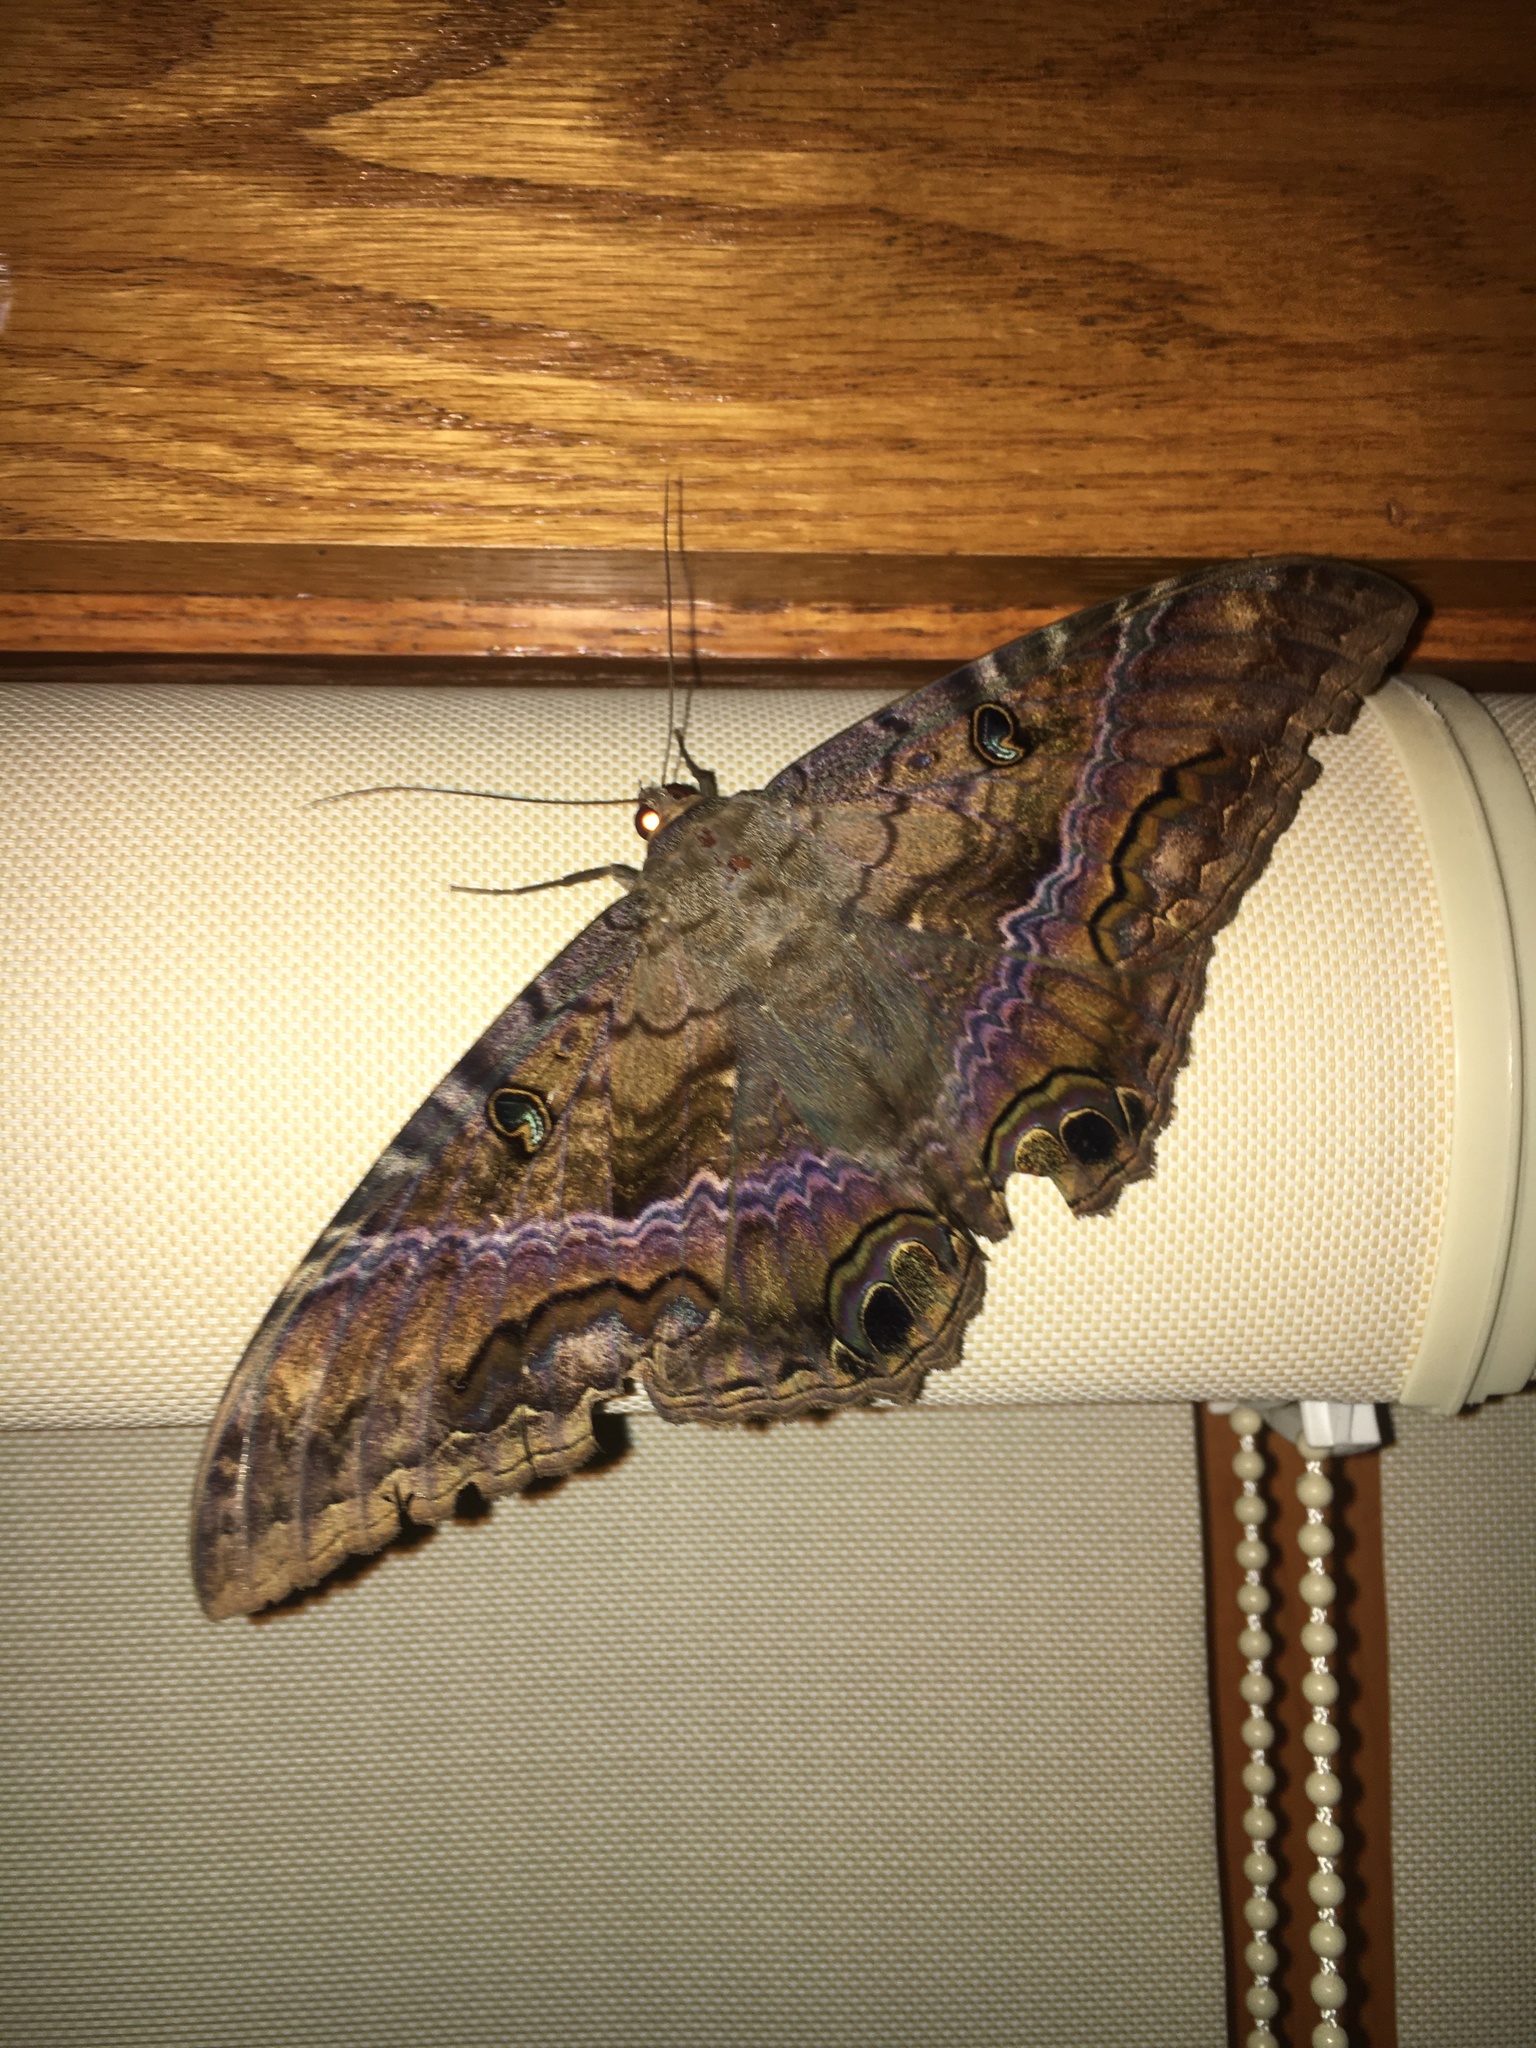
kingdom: Animalia
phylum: Arthropoda
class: Insecta
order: Lepidoptera
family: Erebidae
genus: Ascalapha
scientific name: Ascalapha odorata
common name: Black witch
